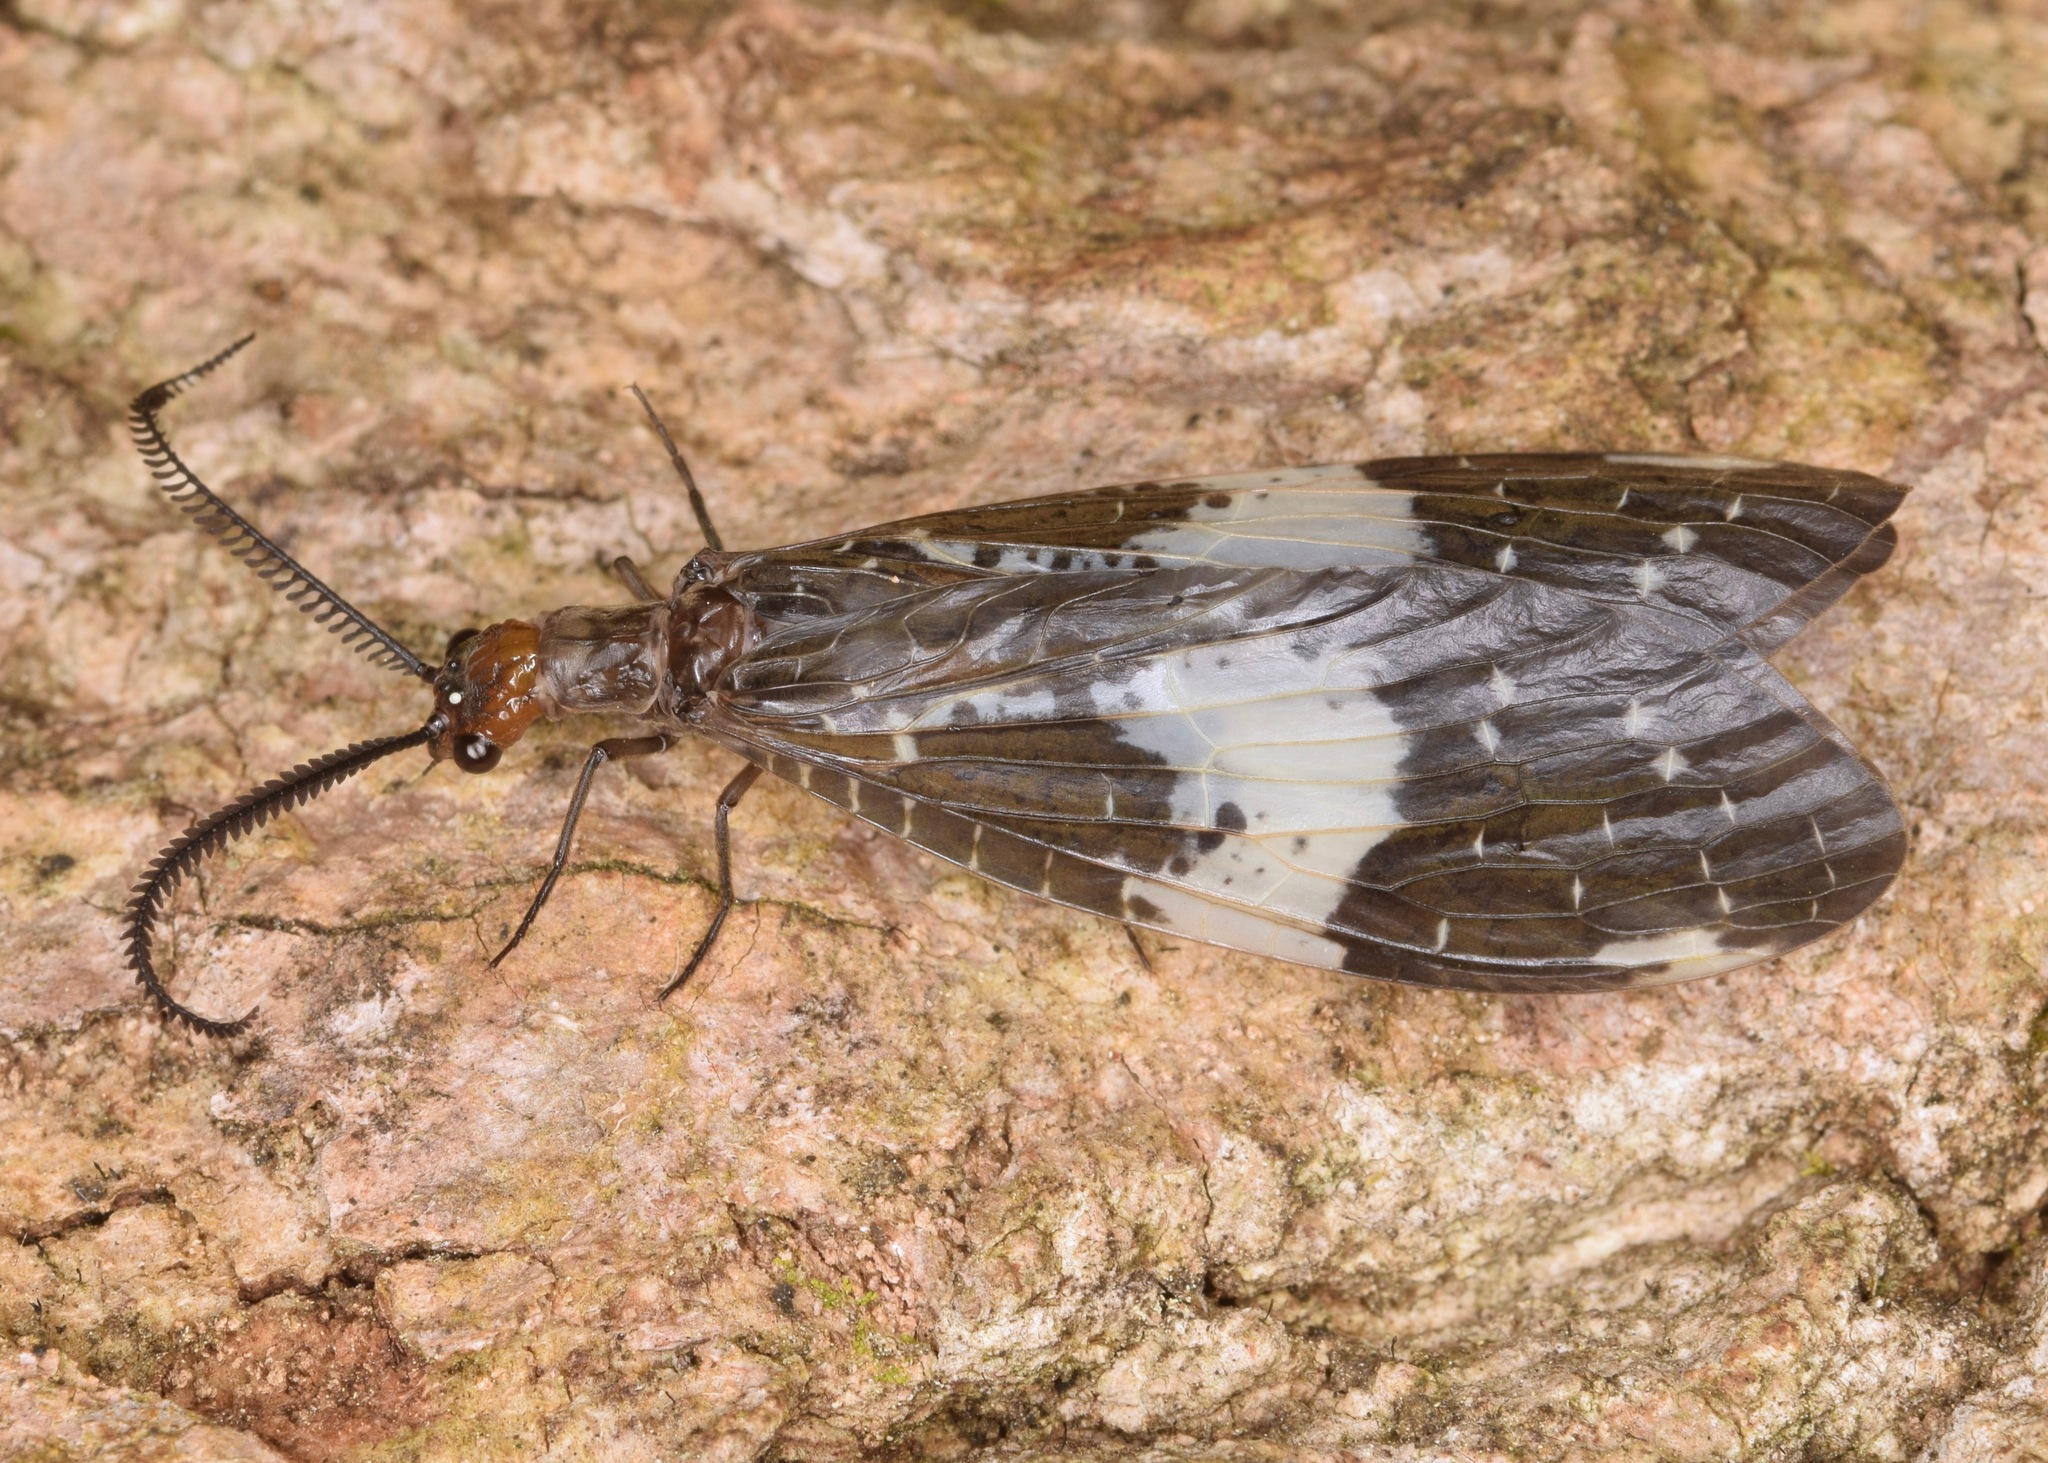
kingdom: Animalia
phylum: Arthropoda
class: Insecta
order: Megaloptera
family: Corydalidae
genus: Nigronia
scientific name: Nigronia fasciata
